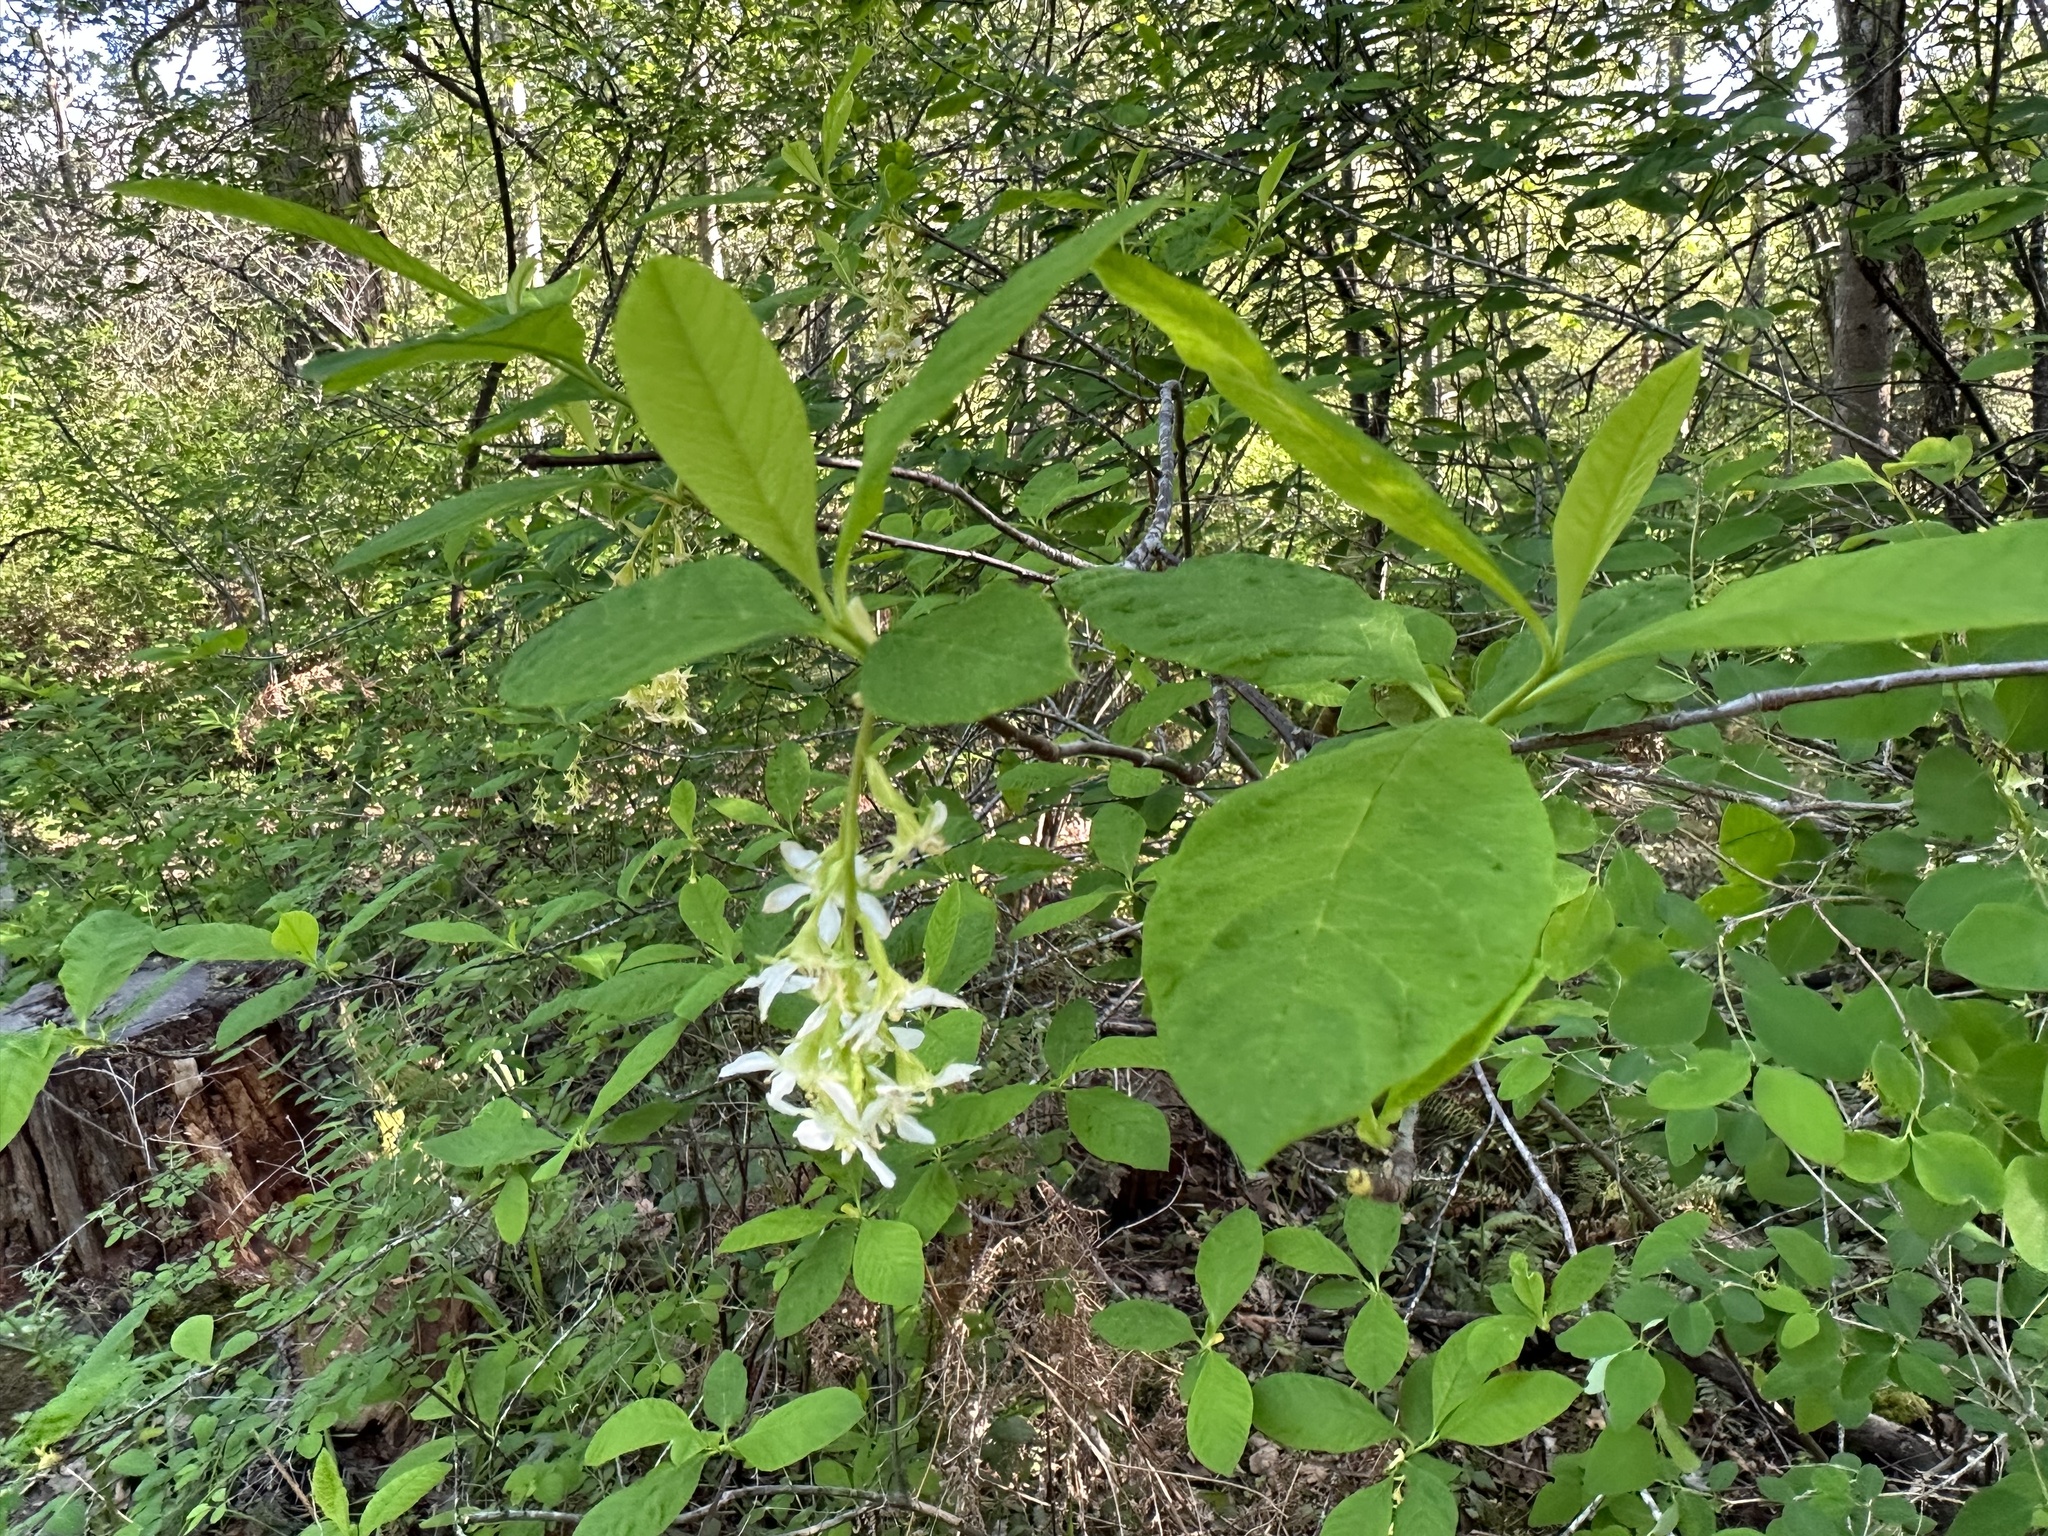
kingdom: Plantae
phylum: Tracheophyta
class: Magnoliopsida
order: Rosales
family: Rosaceae
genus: Oemleria
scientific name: Oemleria cerasiformis
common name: Osoberry
